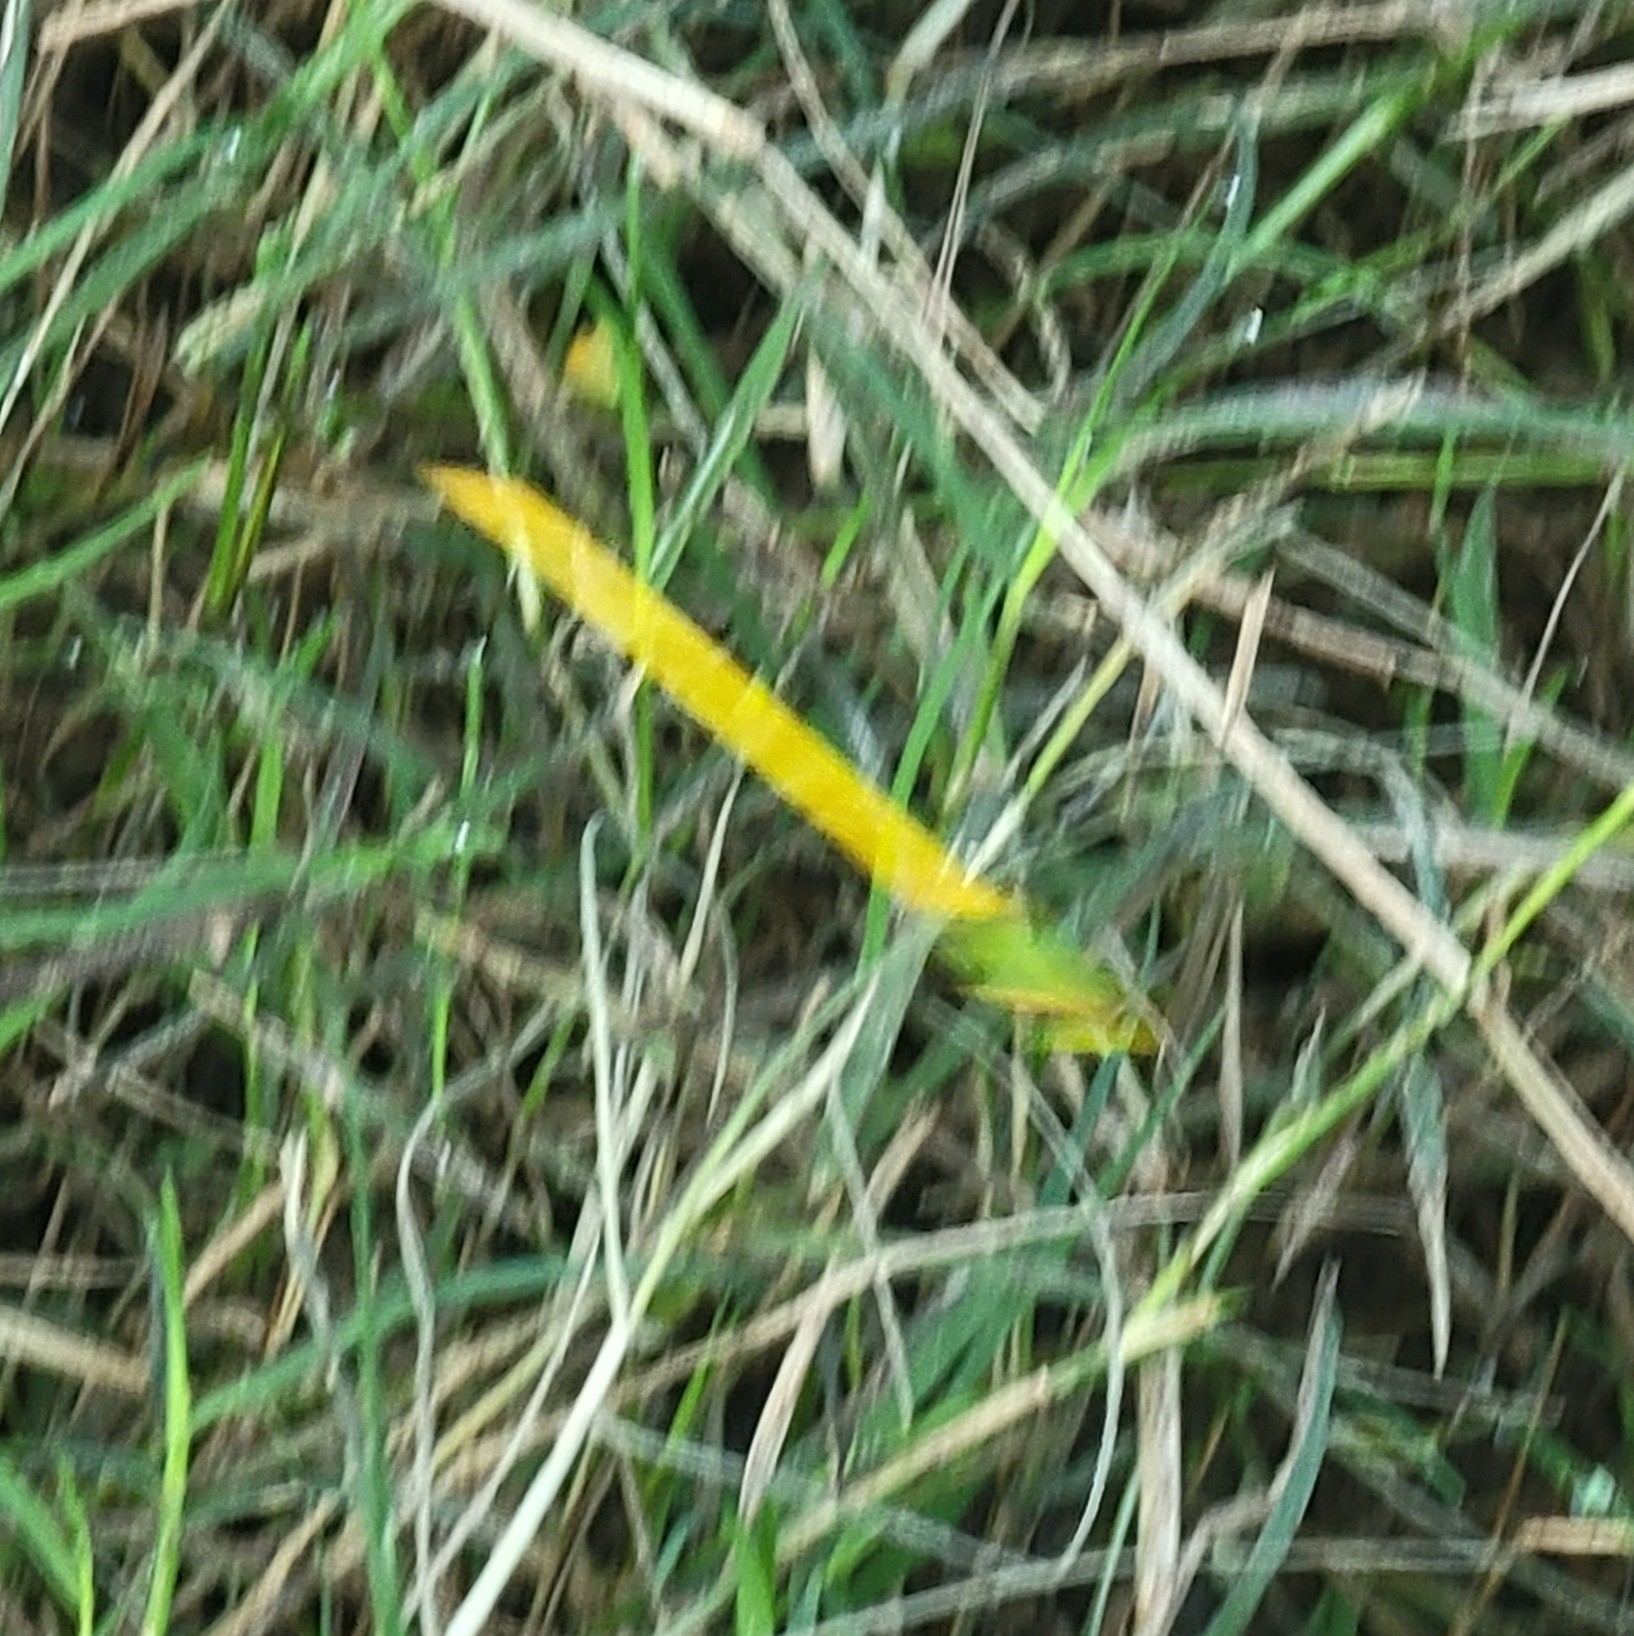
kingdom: Animalia
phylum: Arthropoda
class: Insecta
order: Odonata
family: Coenagrionidae
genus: Ceriagrion
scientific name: Ceriagrion coromandelianum
